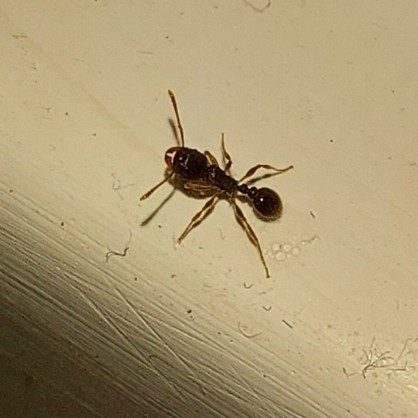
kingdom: Animalia
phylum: Arthropoda
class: Insecta
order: Hymenoptera
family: Formicidae
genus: Tetramorium
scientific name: Tetramorium immigrans
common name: Pavement ant
